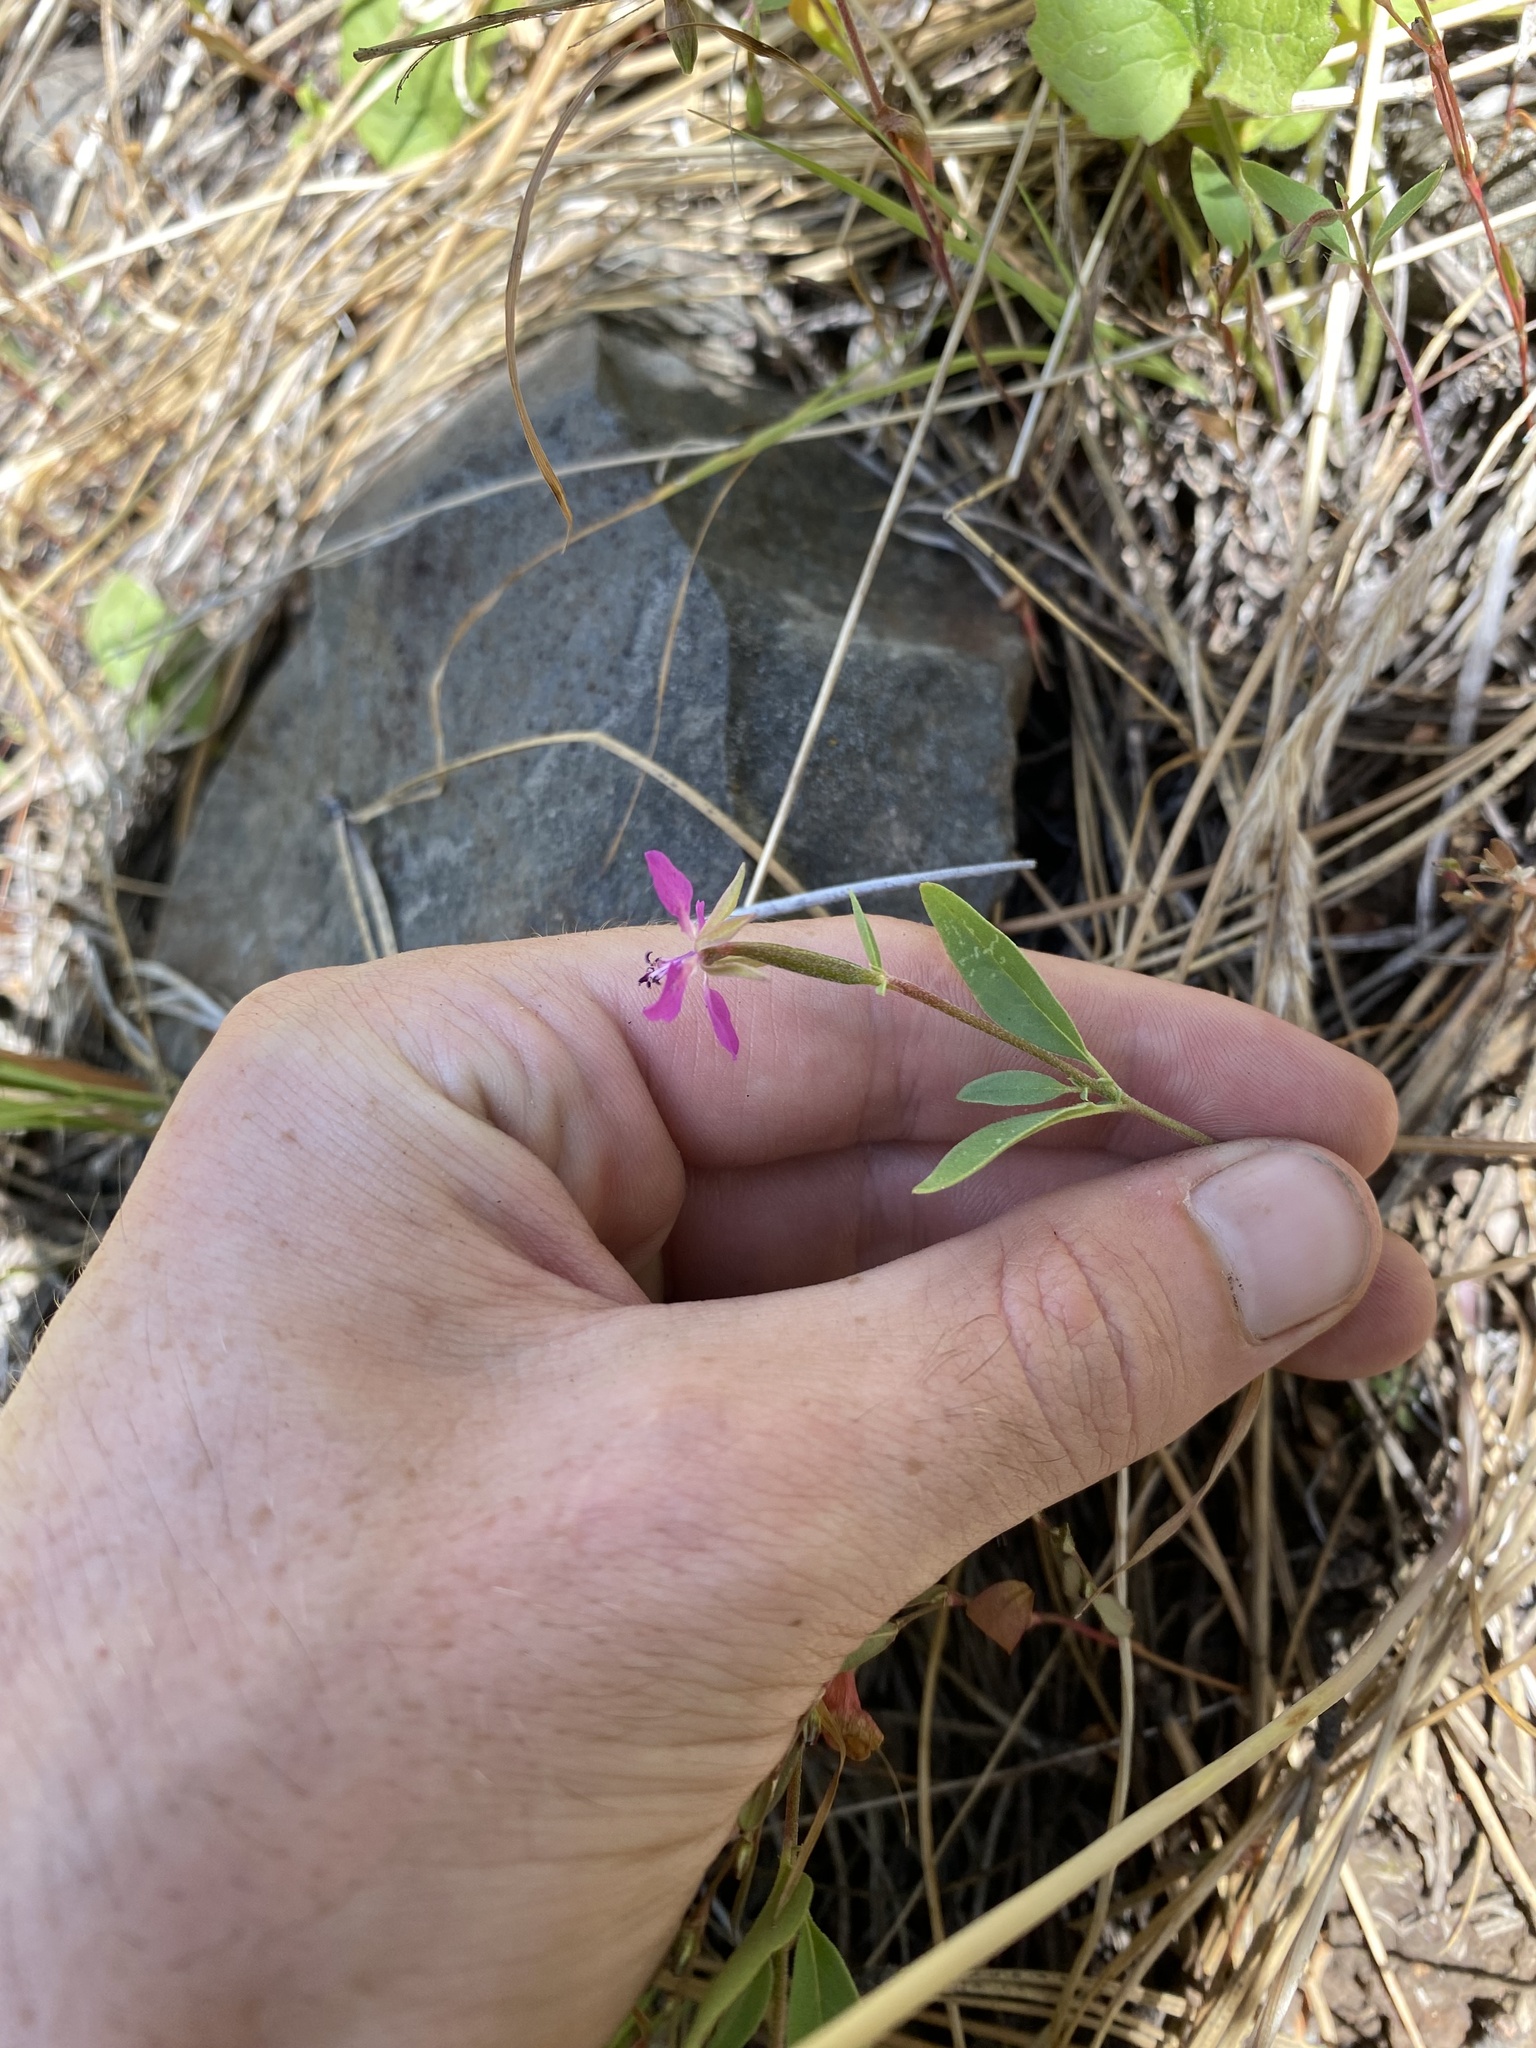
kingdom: Plantae
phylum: Tracheophyta
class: Magnoliopsida
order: Myrtales
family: Onagraceae
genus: Clarkia
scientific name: Clarkia rhomboidea
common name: Broadleaf clarkia
